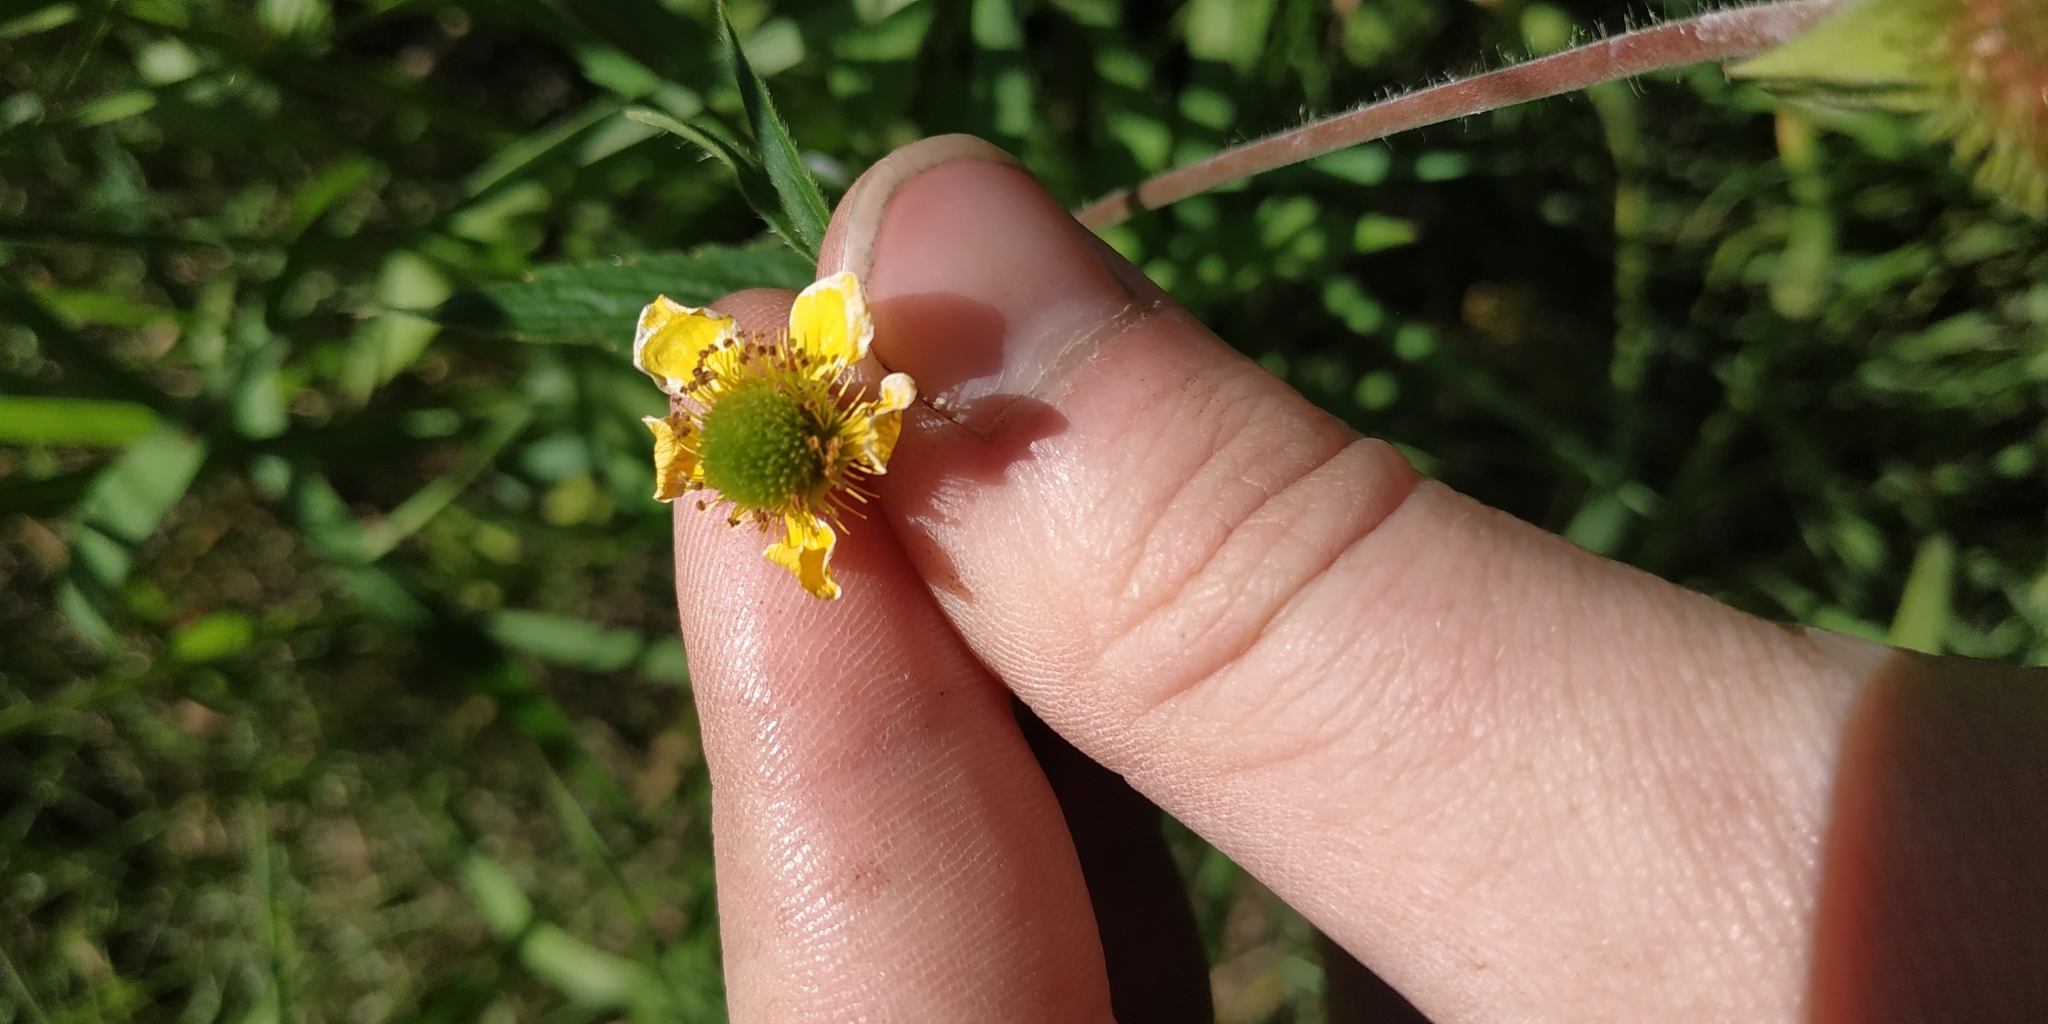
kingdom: Plantae
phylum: Tracheophyta
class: Magnoliopsida
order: Rosales
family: Rosaceae
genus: Geum
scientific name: Geum aleppicum
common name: Yellow avens
